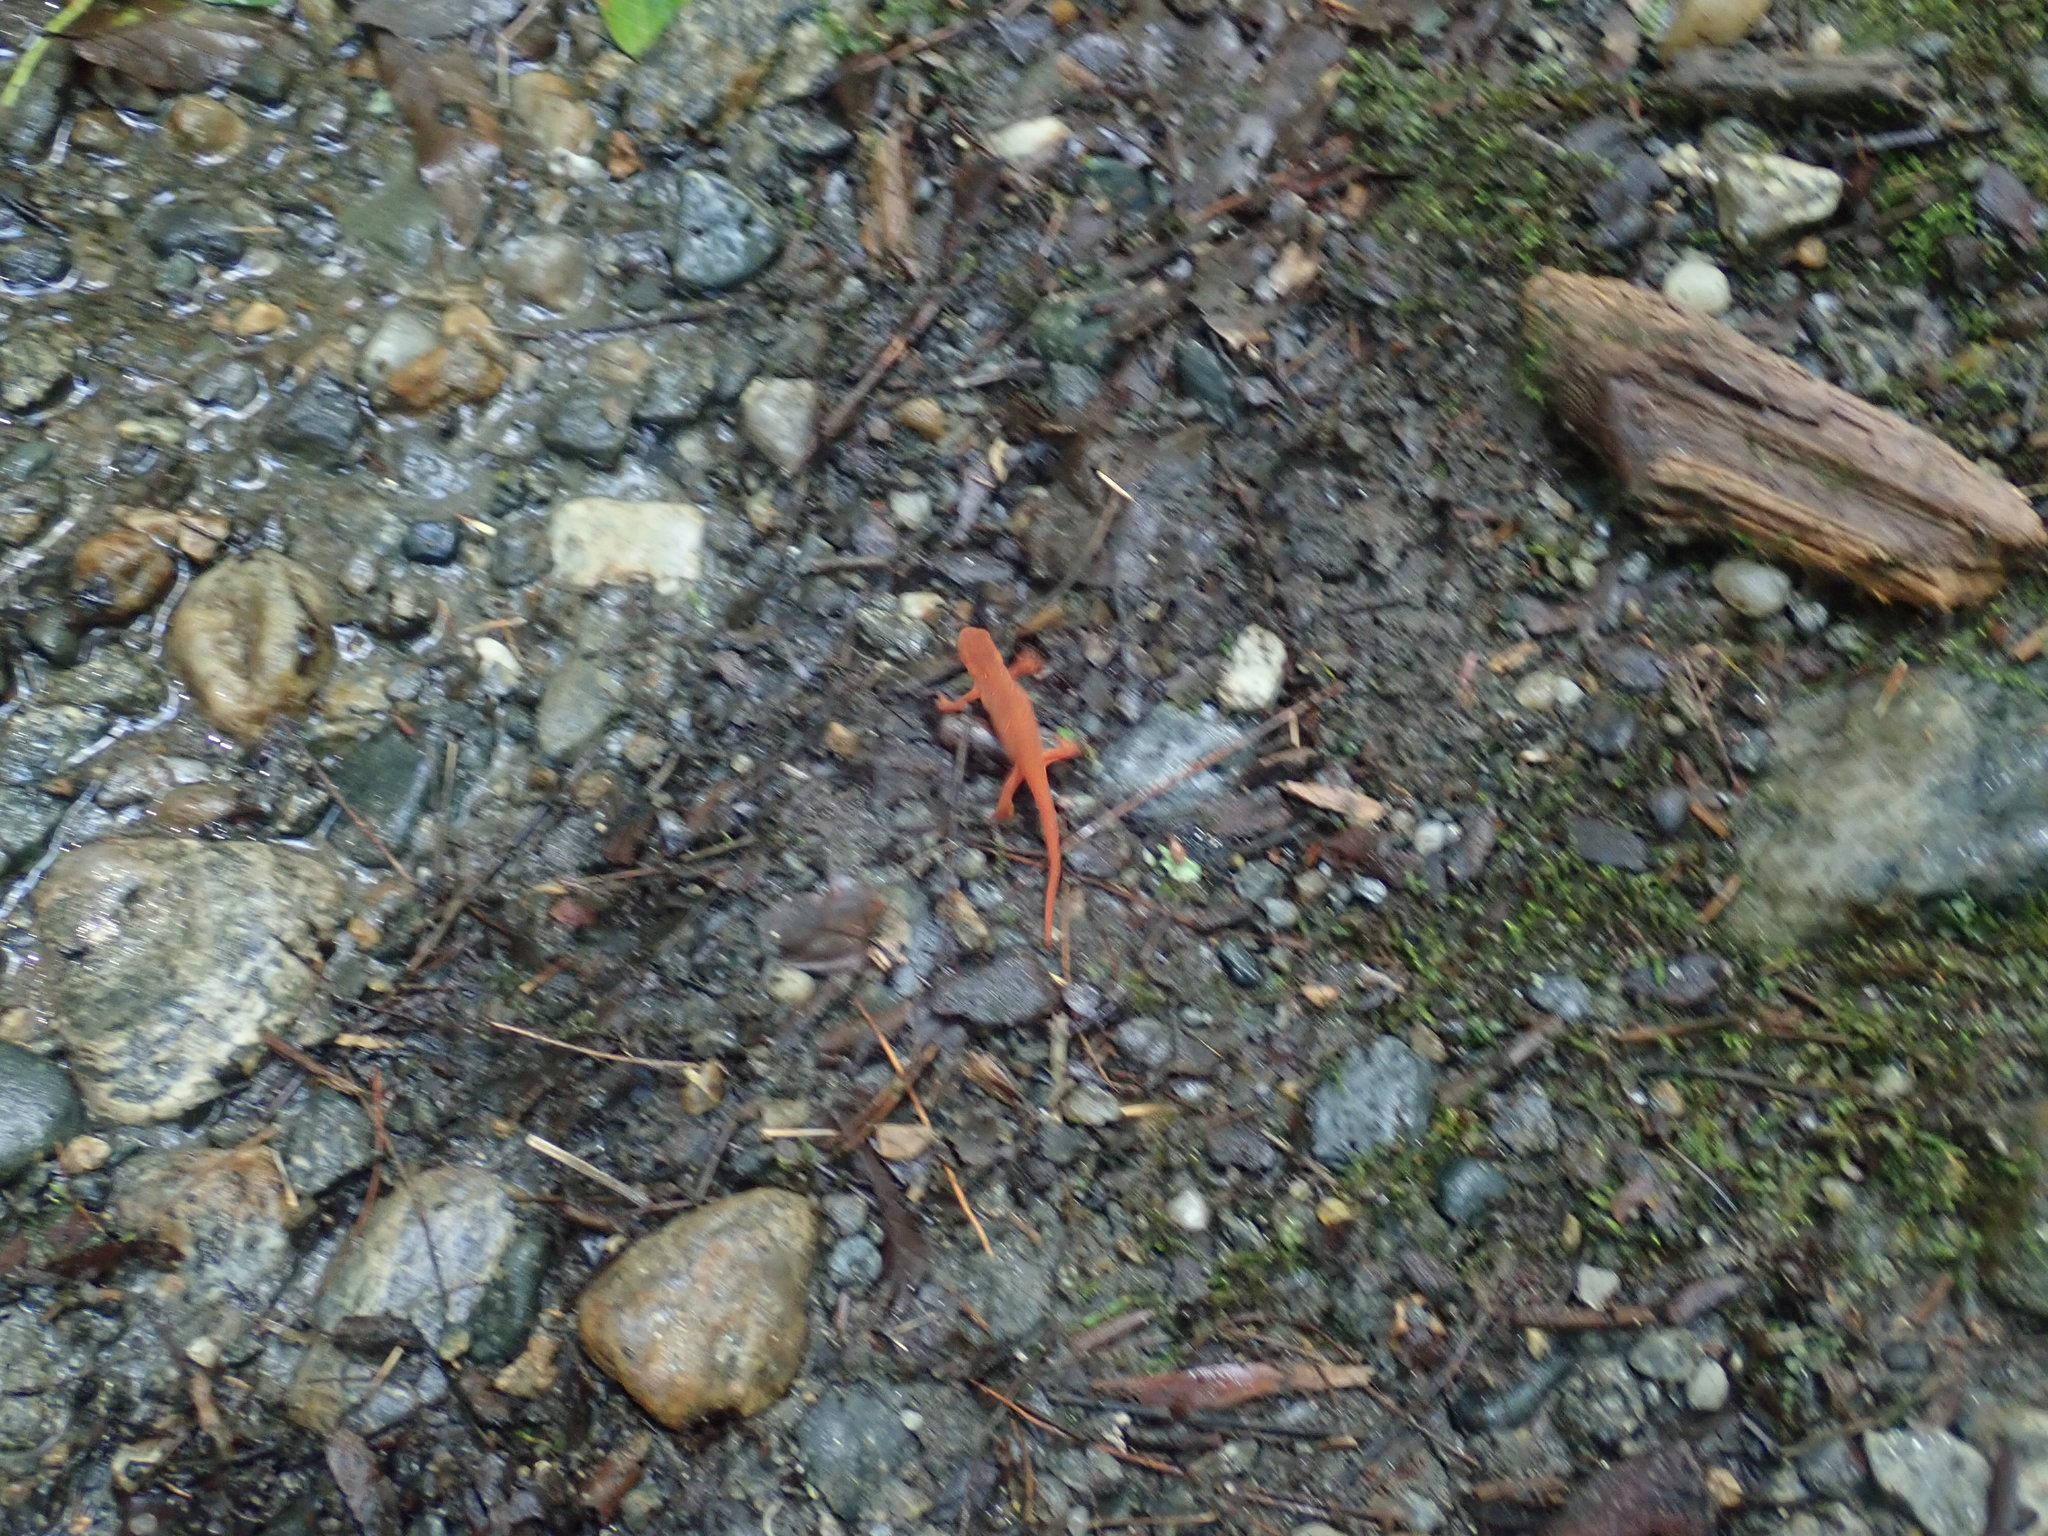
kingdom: Animalia
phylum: Chordata
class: Amphibia
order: Caudata
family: Salamandridae
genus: Notophthalmus
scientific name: Notophthalmus viridescens
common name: Eastern newt
